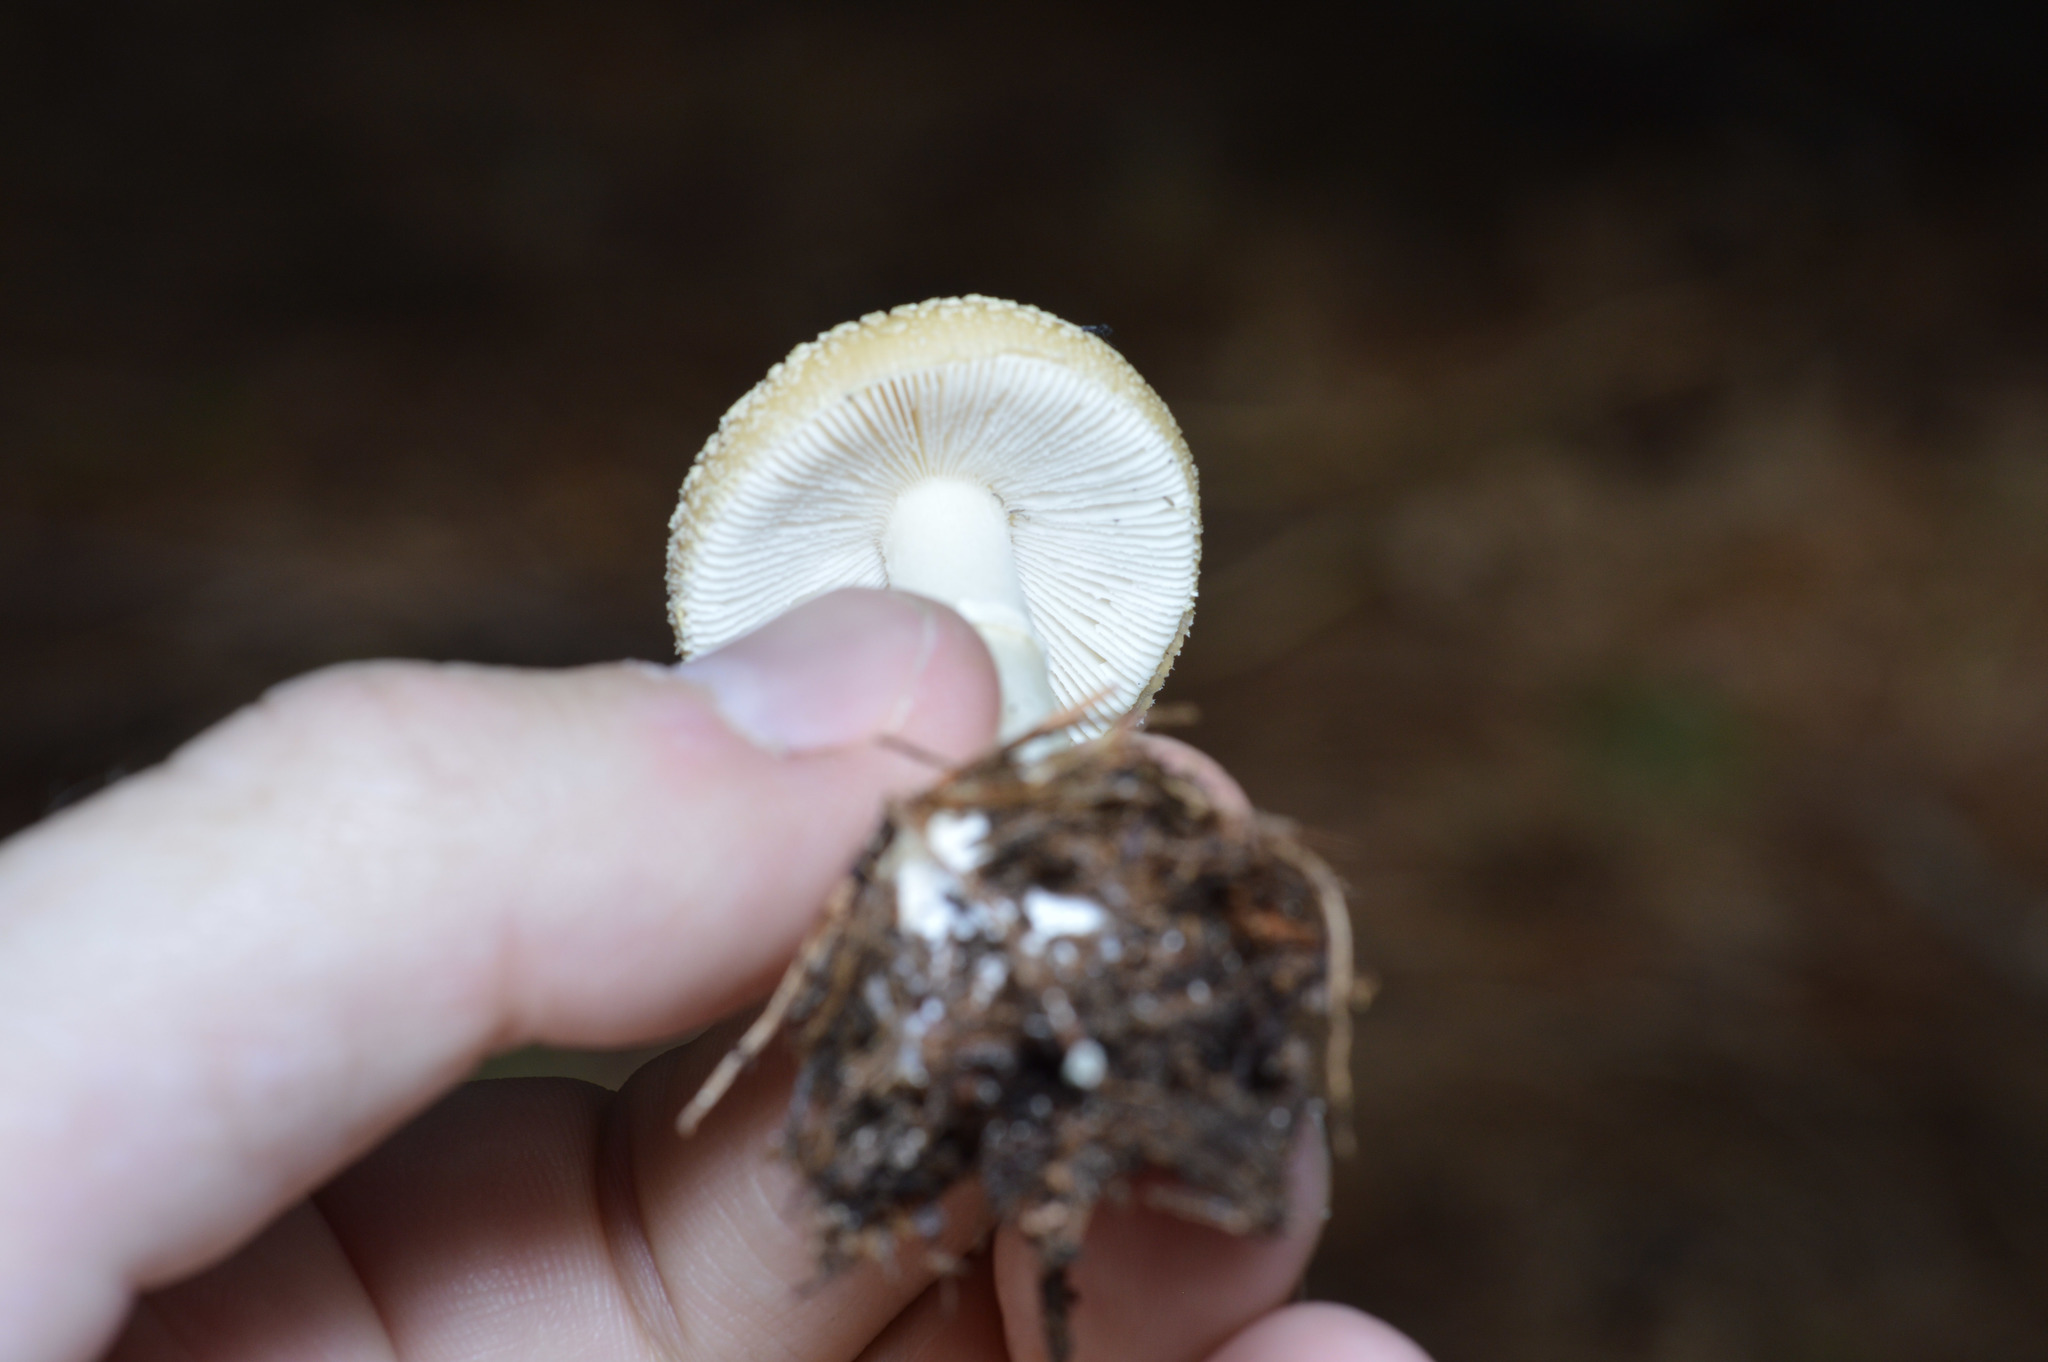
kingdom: Fungi
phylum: Basidiomycota
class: Agaricomycetes
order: Agaricales
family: Amanitaceae
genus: Amanita
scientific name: Amanita crenulata
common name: Poison champagne amanita
